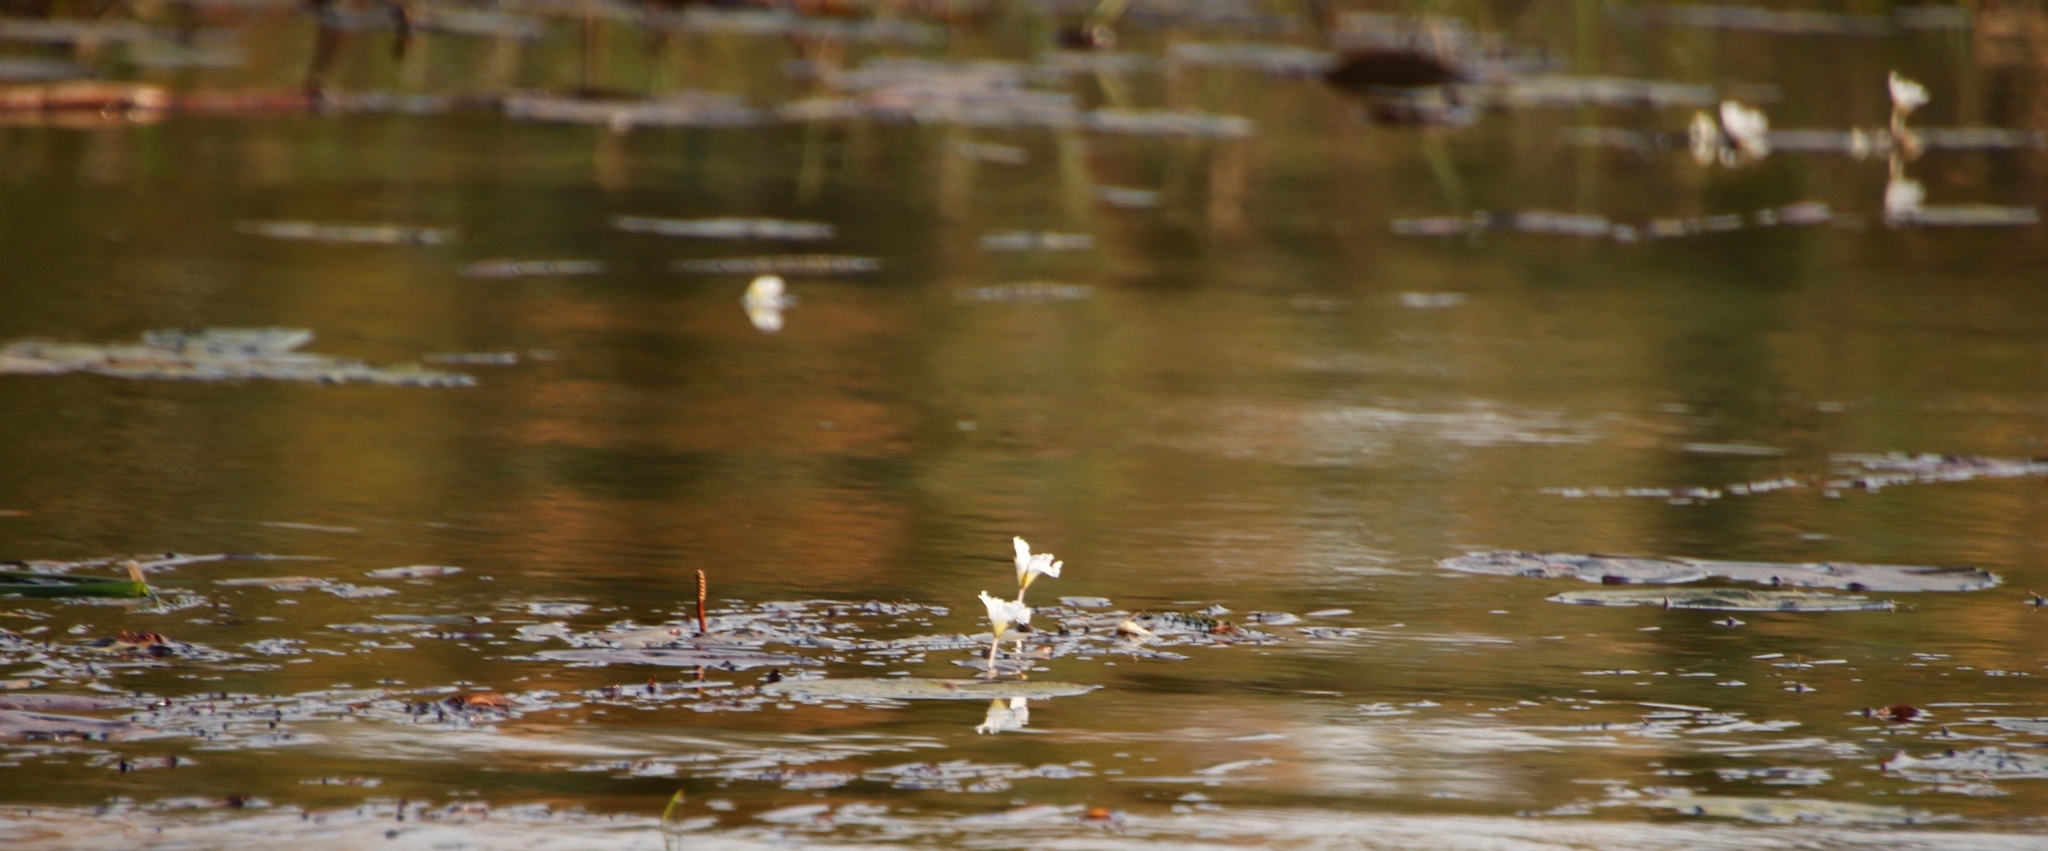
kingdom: Plantae
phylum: Tracheophyta
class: Liliopsida
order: Alismatales
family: Hydrocharitaceae
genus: Ottelia
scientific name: Ottelia kunenensis
